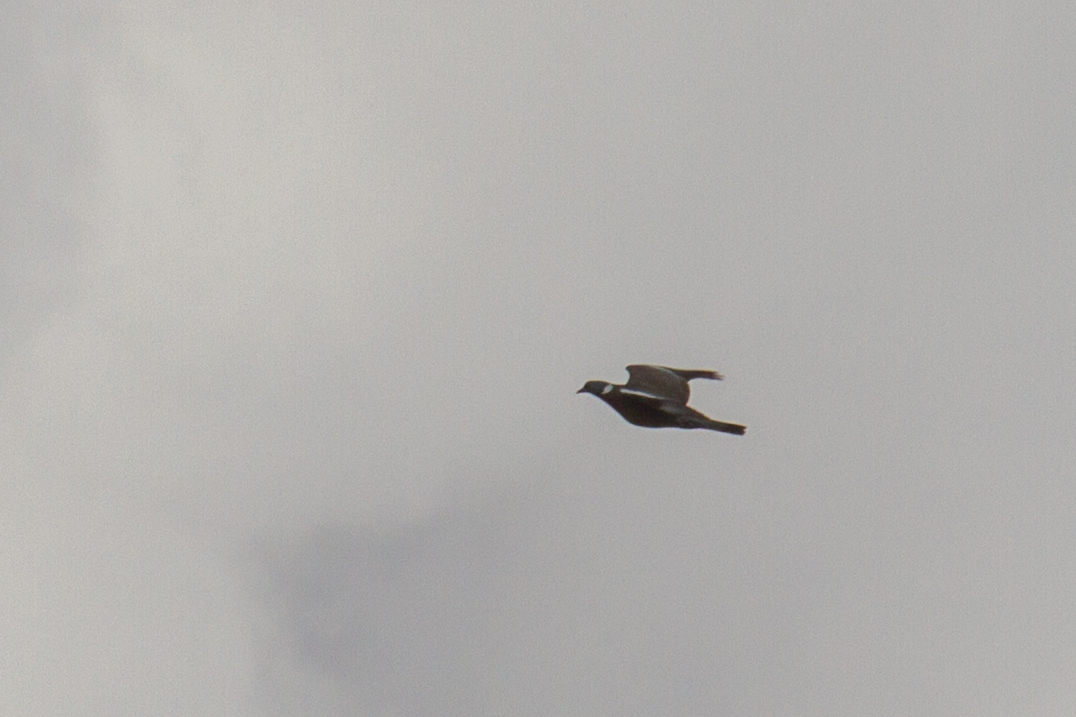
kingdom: Animalia
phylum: Chordata
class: Aves
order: Columbiformes
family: Columbidae
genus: Columba
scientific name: Columba palumbus
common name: Common wood pigeon
